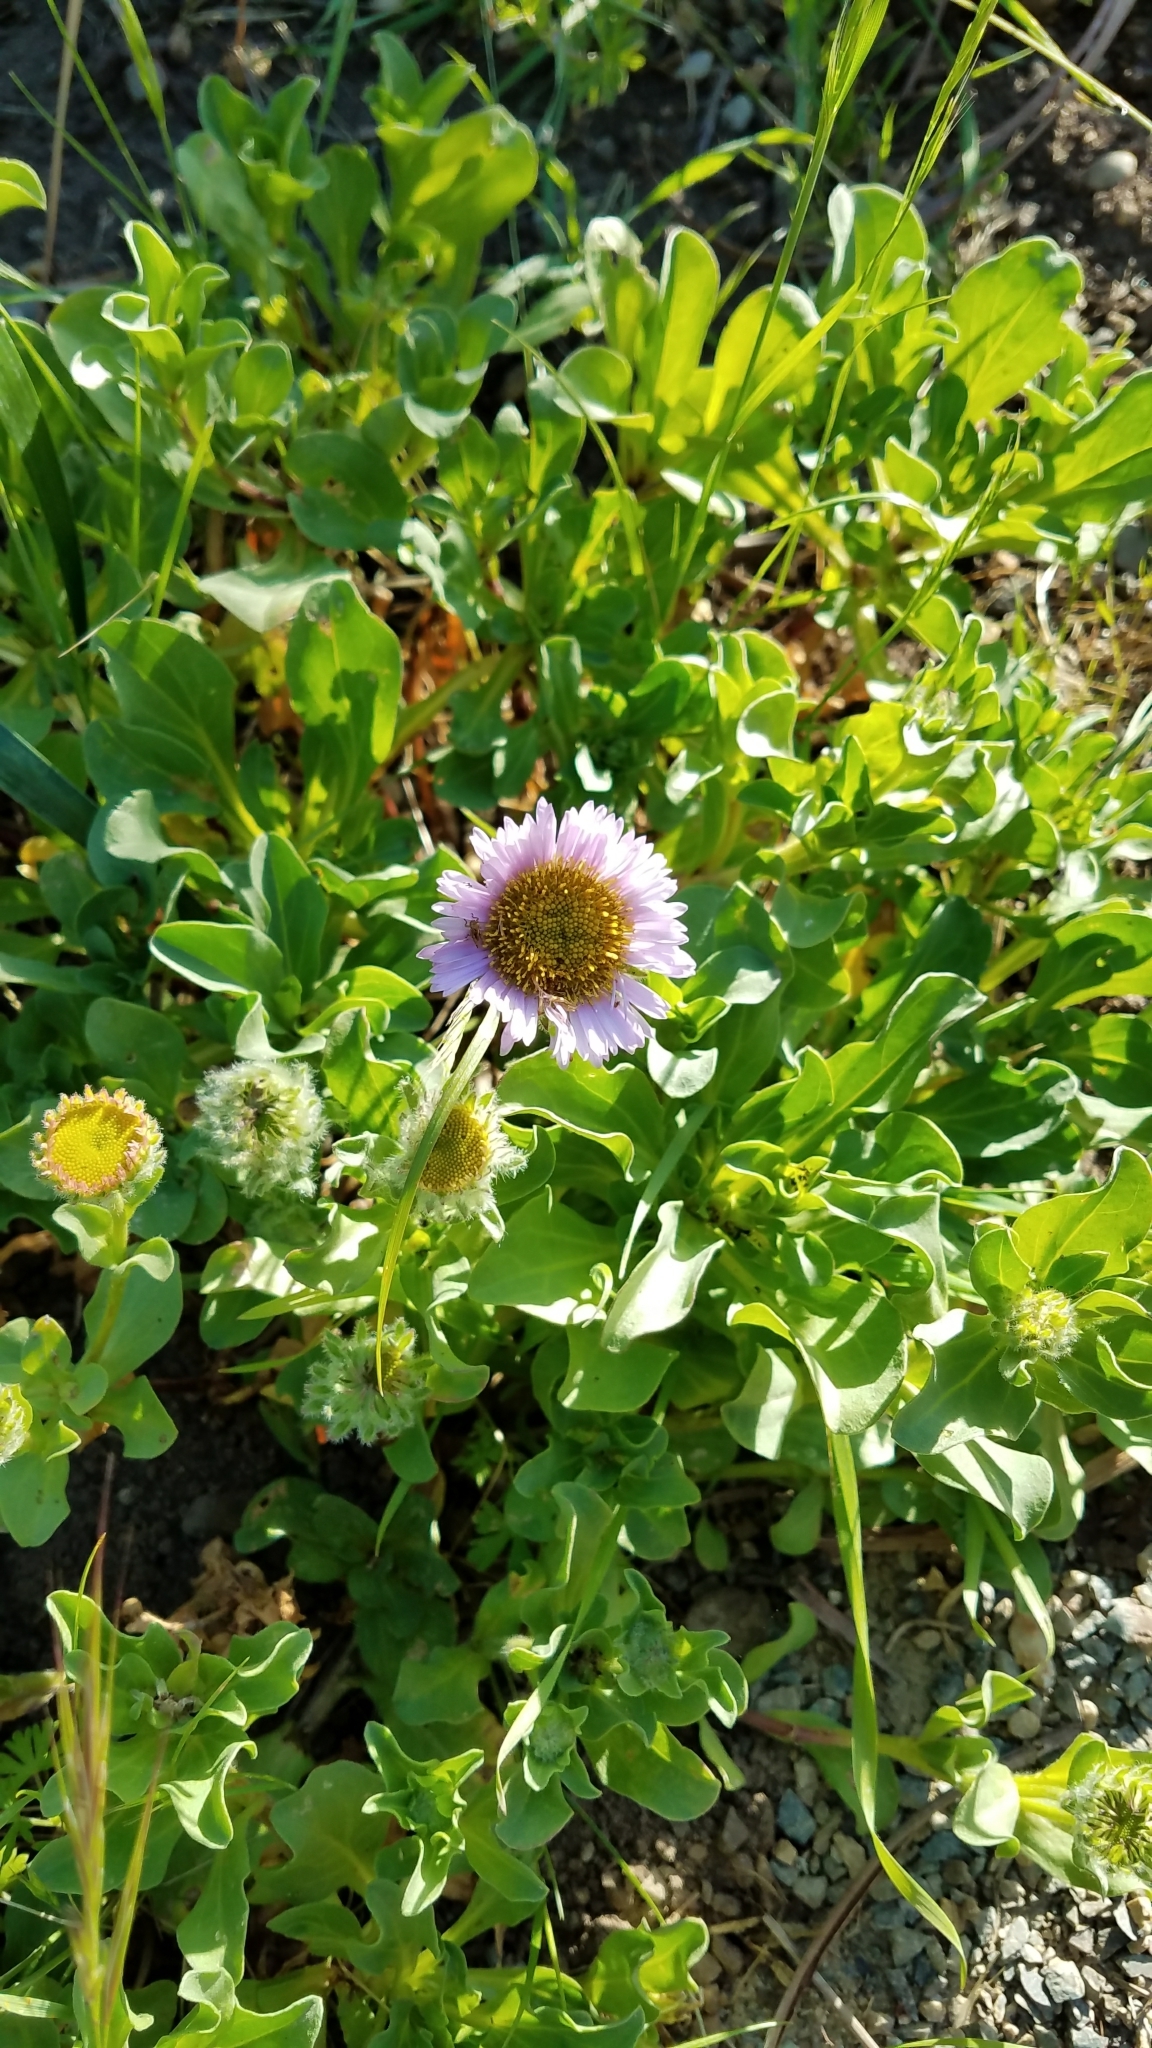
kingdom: Plantae
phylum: Tracheophyta
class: Magnoliopsida
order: Asterales
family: Asteraceae
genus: Erigeron
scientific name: Erigeron glaucus
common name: Seaside daisy
